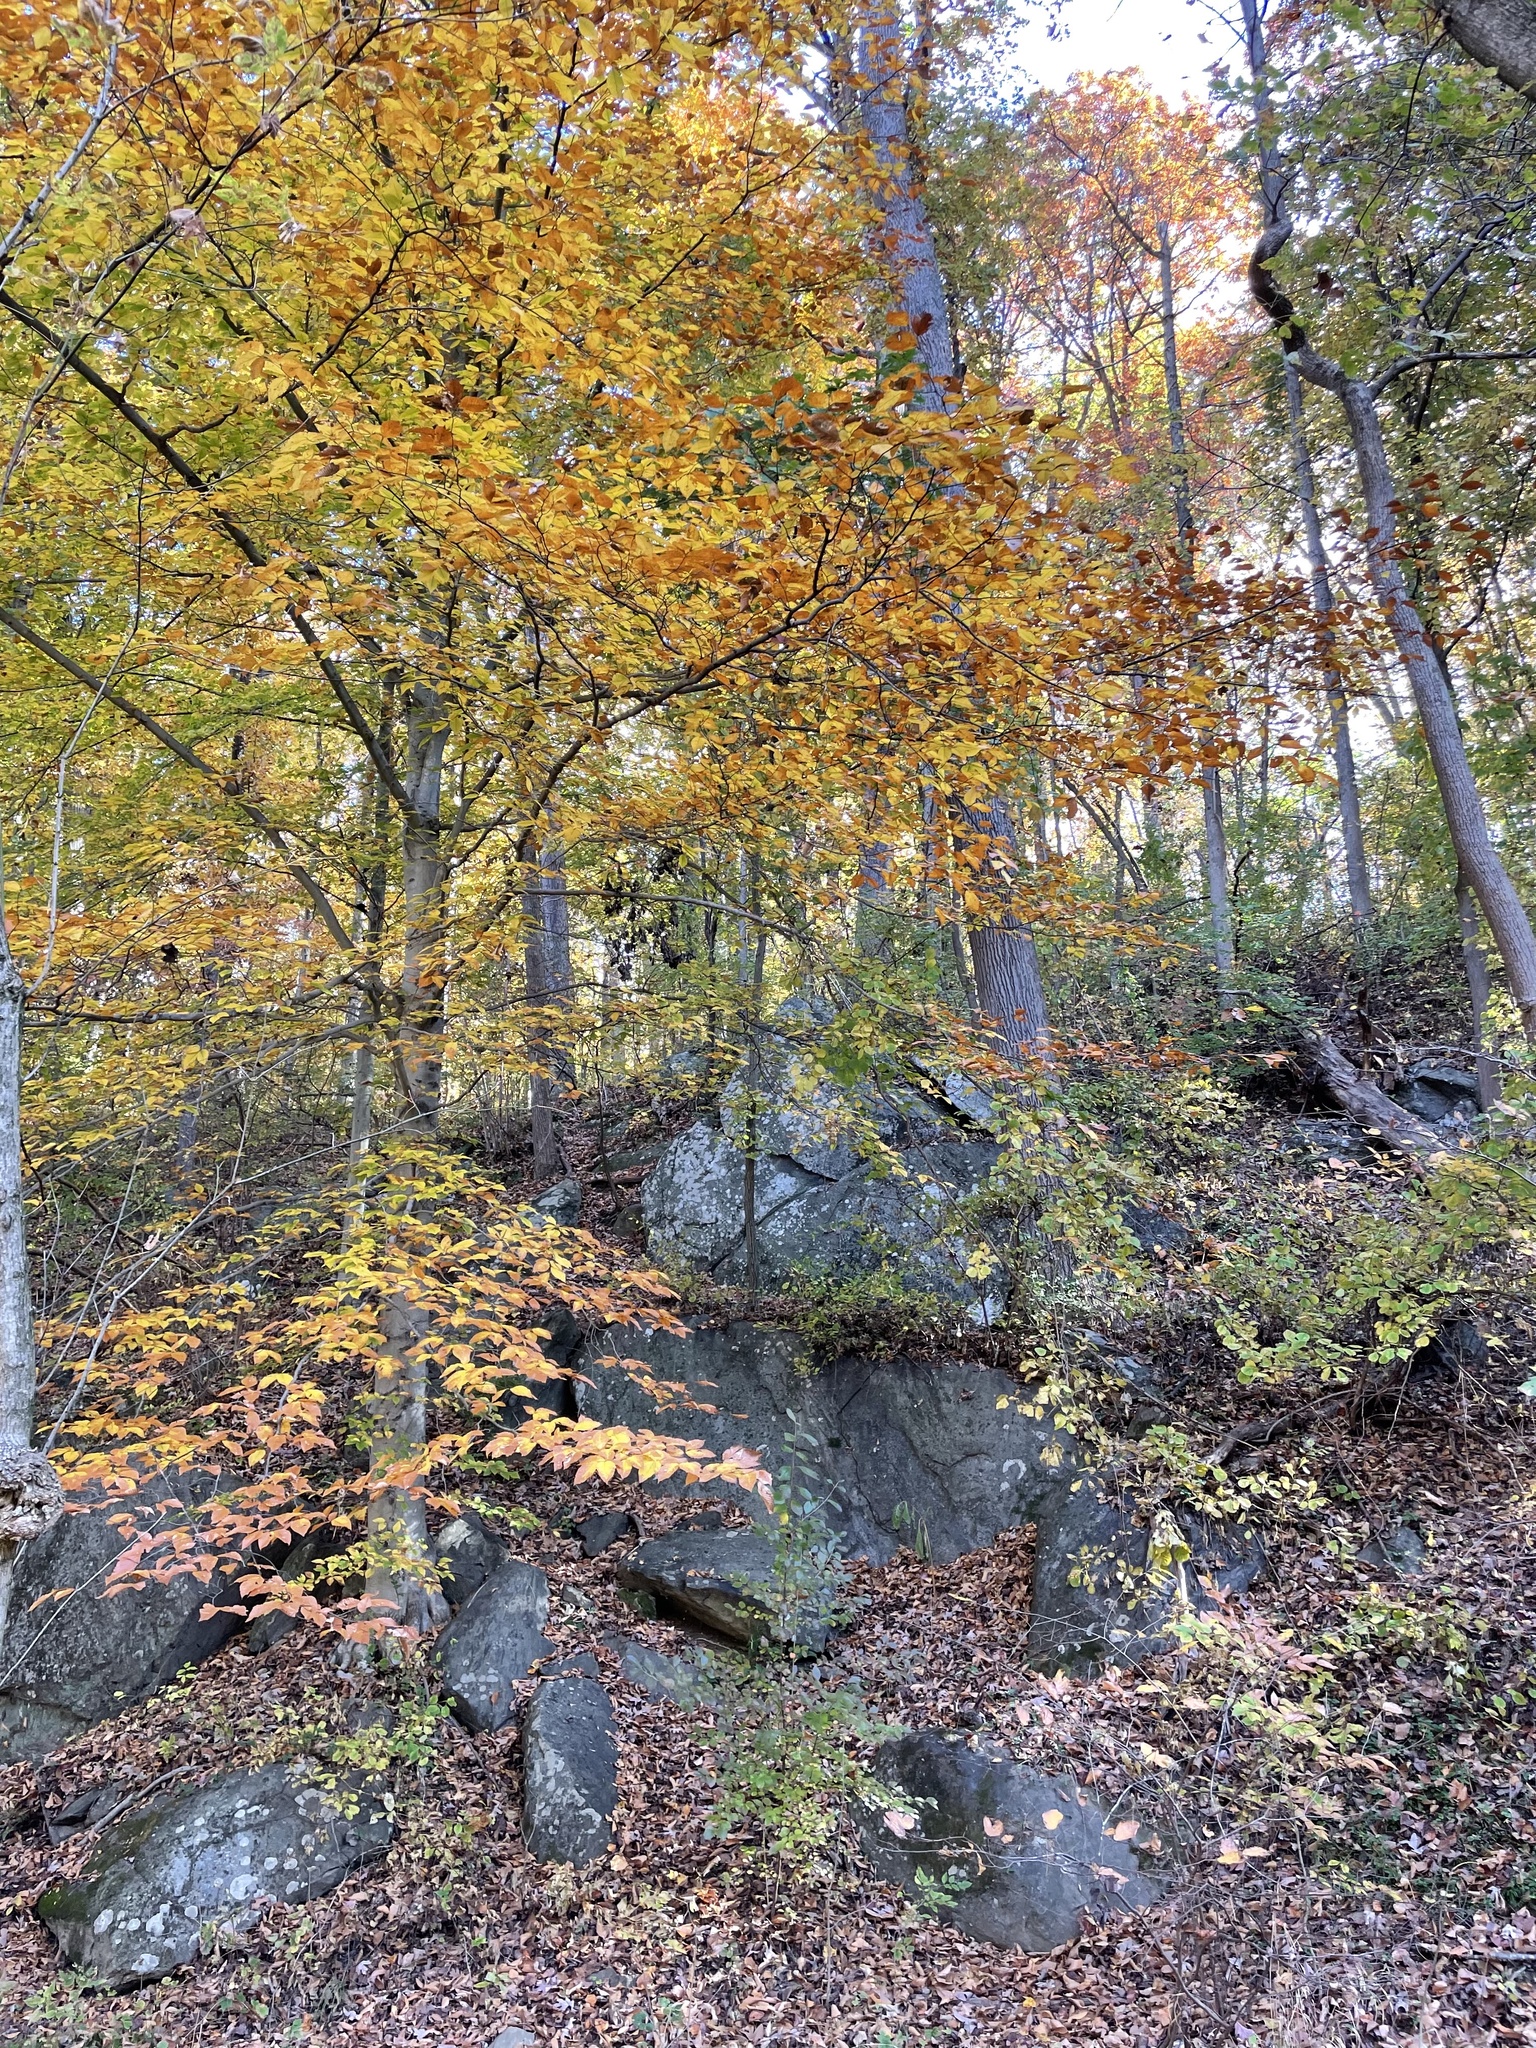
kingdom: Plantae
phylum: Tracheophyta
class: Magnoliopsida
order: Fagales
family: Fagaceae
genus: Fagus
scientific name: Fagus grandifolia
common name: American beech
